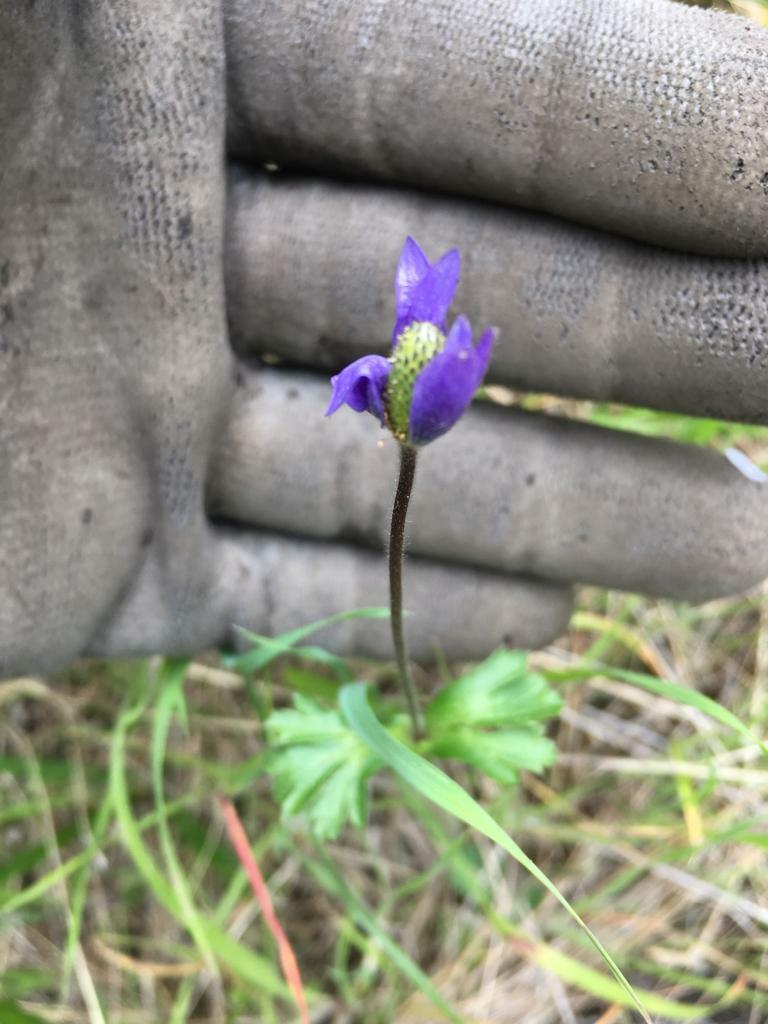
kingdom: Plantae
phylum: Tracheophyta
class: Magnoliopsida
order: Ranunculales
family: Ranunculaceae
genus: Anemone
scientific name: Anemone decapetala
